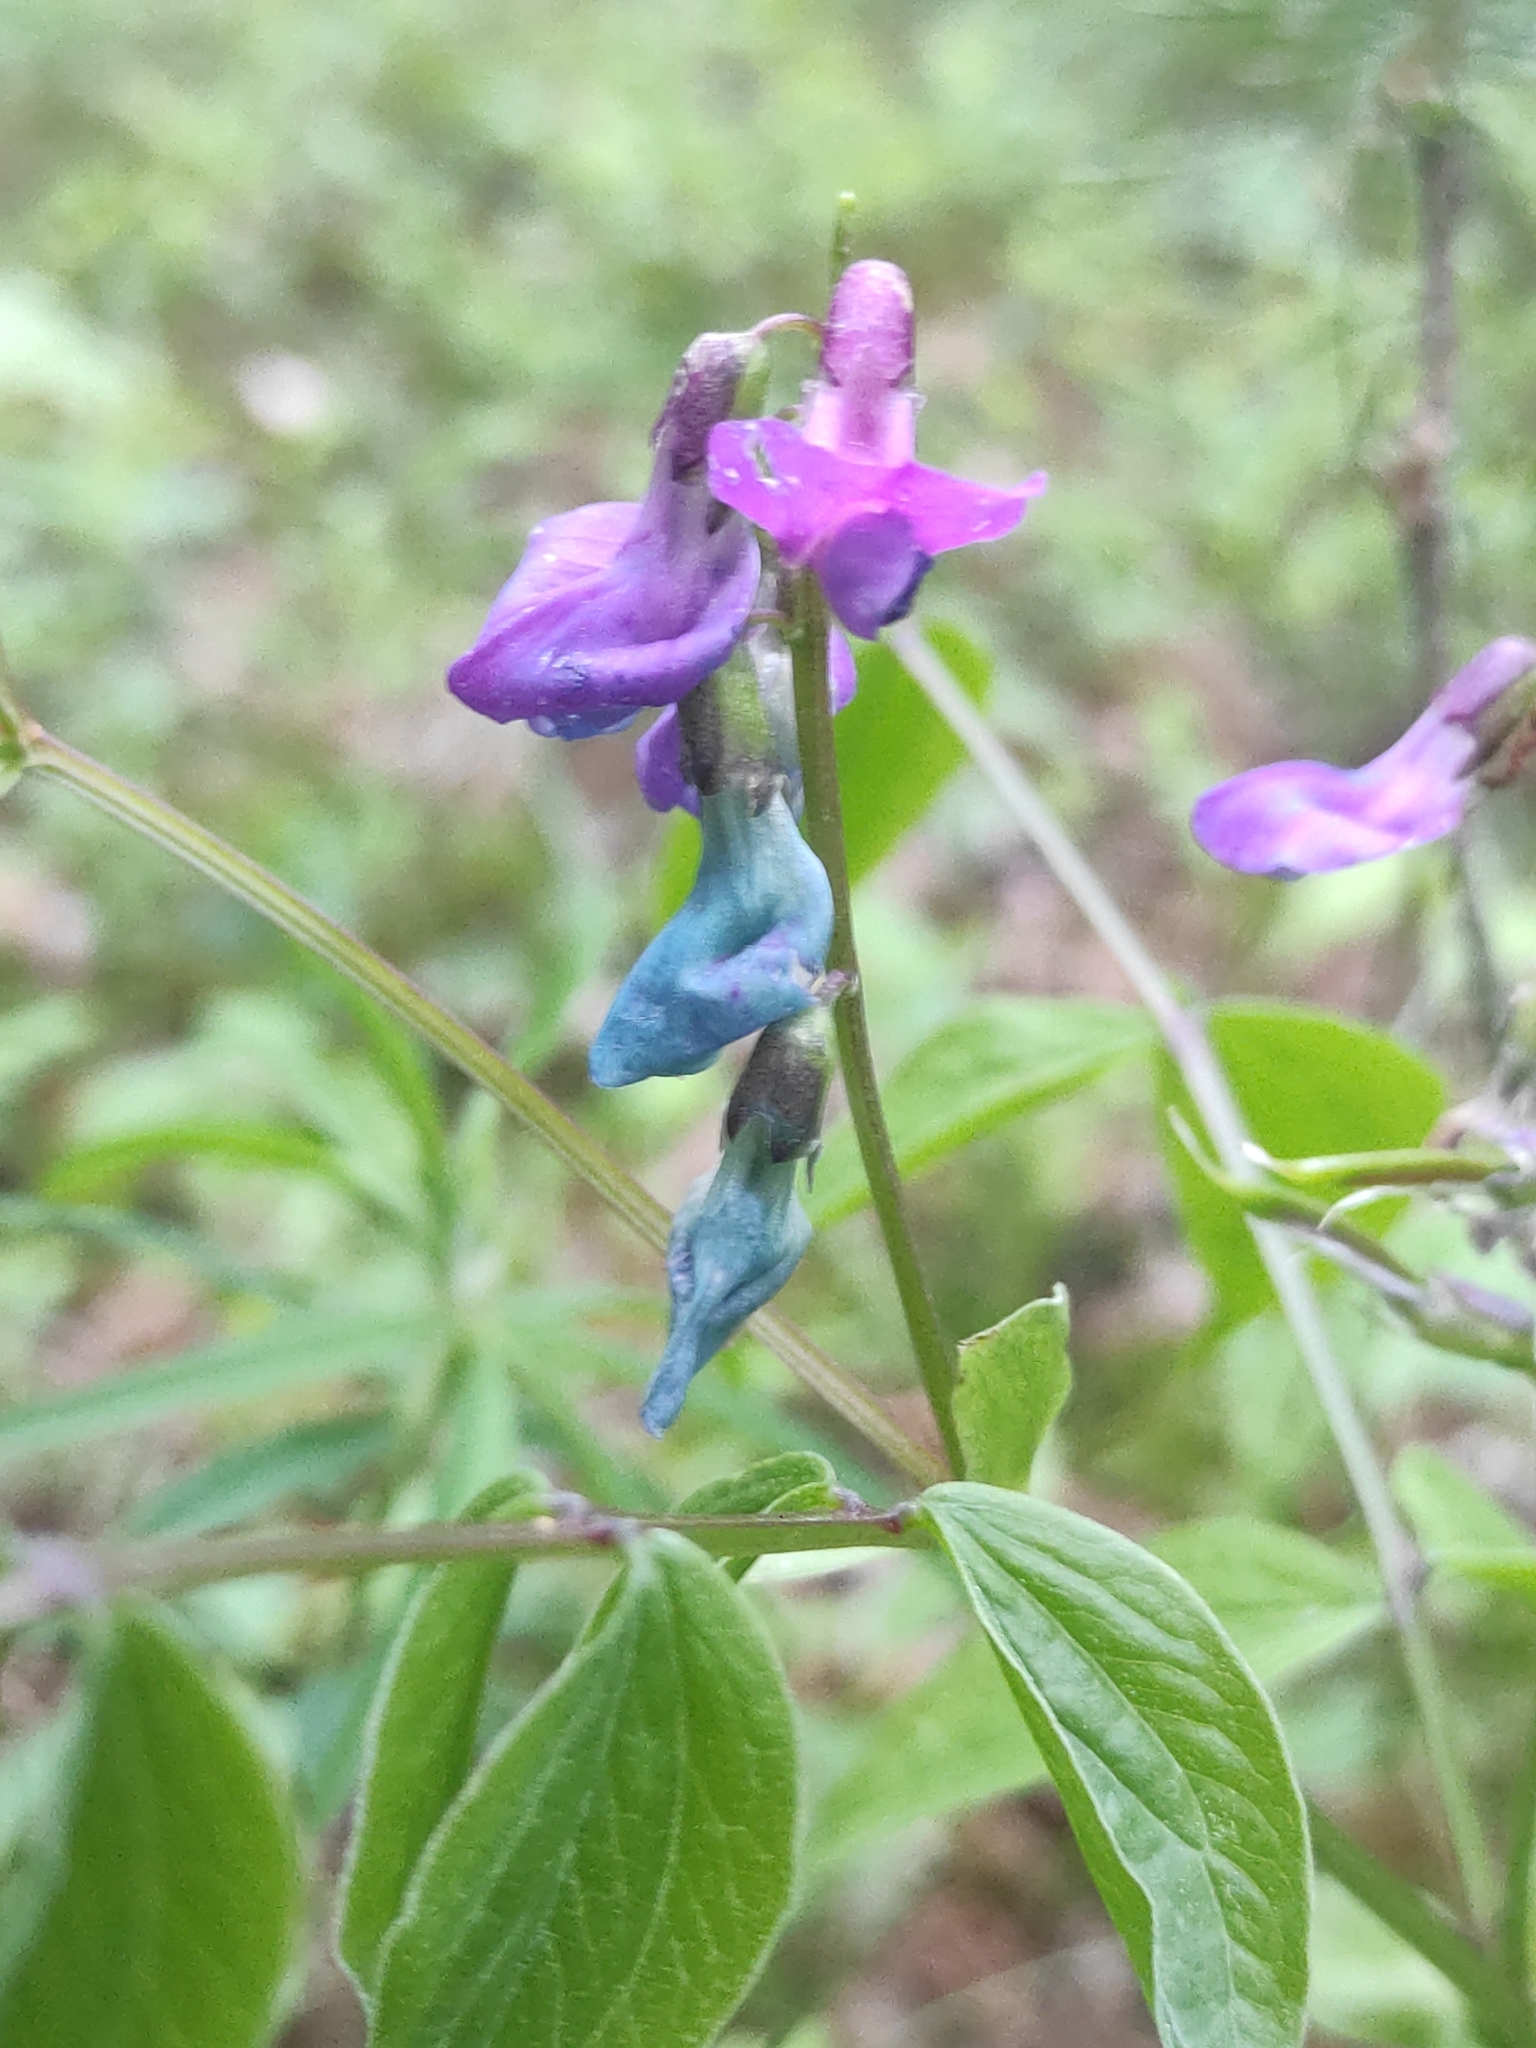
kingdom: Plantae
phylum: Tracheophyta
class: Magnoliopsida
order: Fabales
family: Fabaceae
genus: Lathyrus
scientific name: Lathyrus vernus
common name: Spring pea
